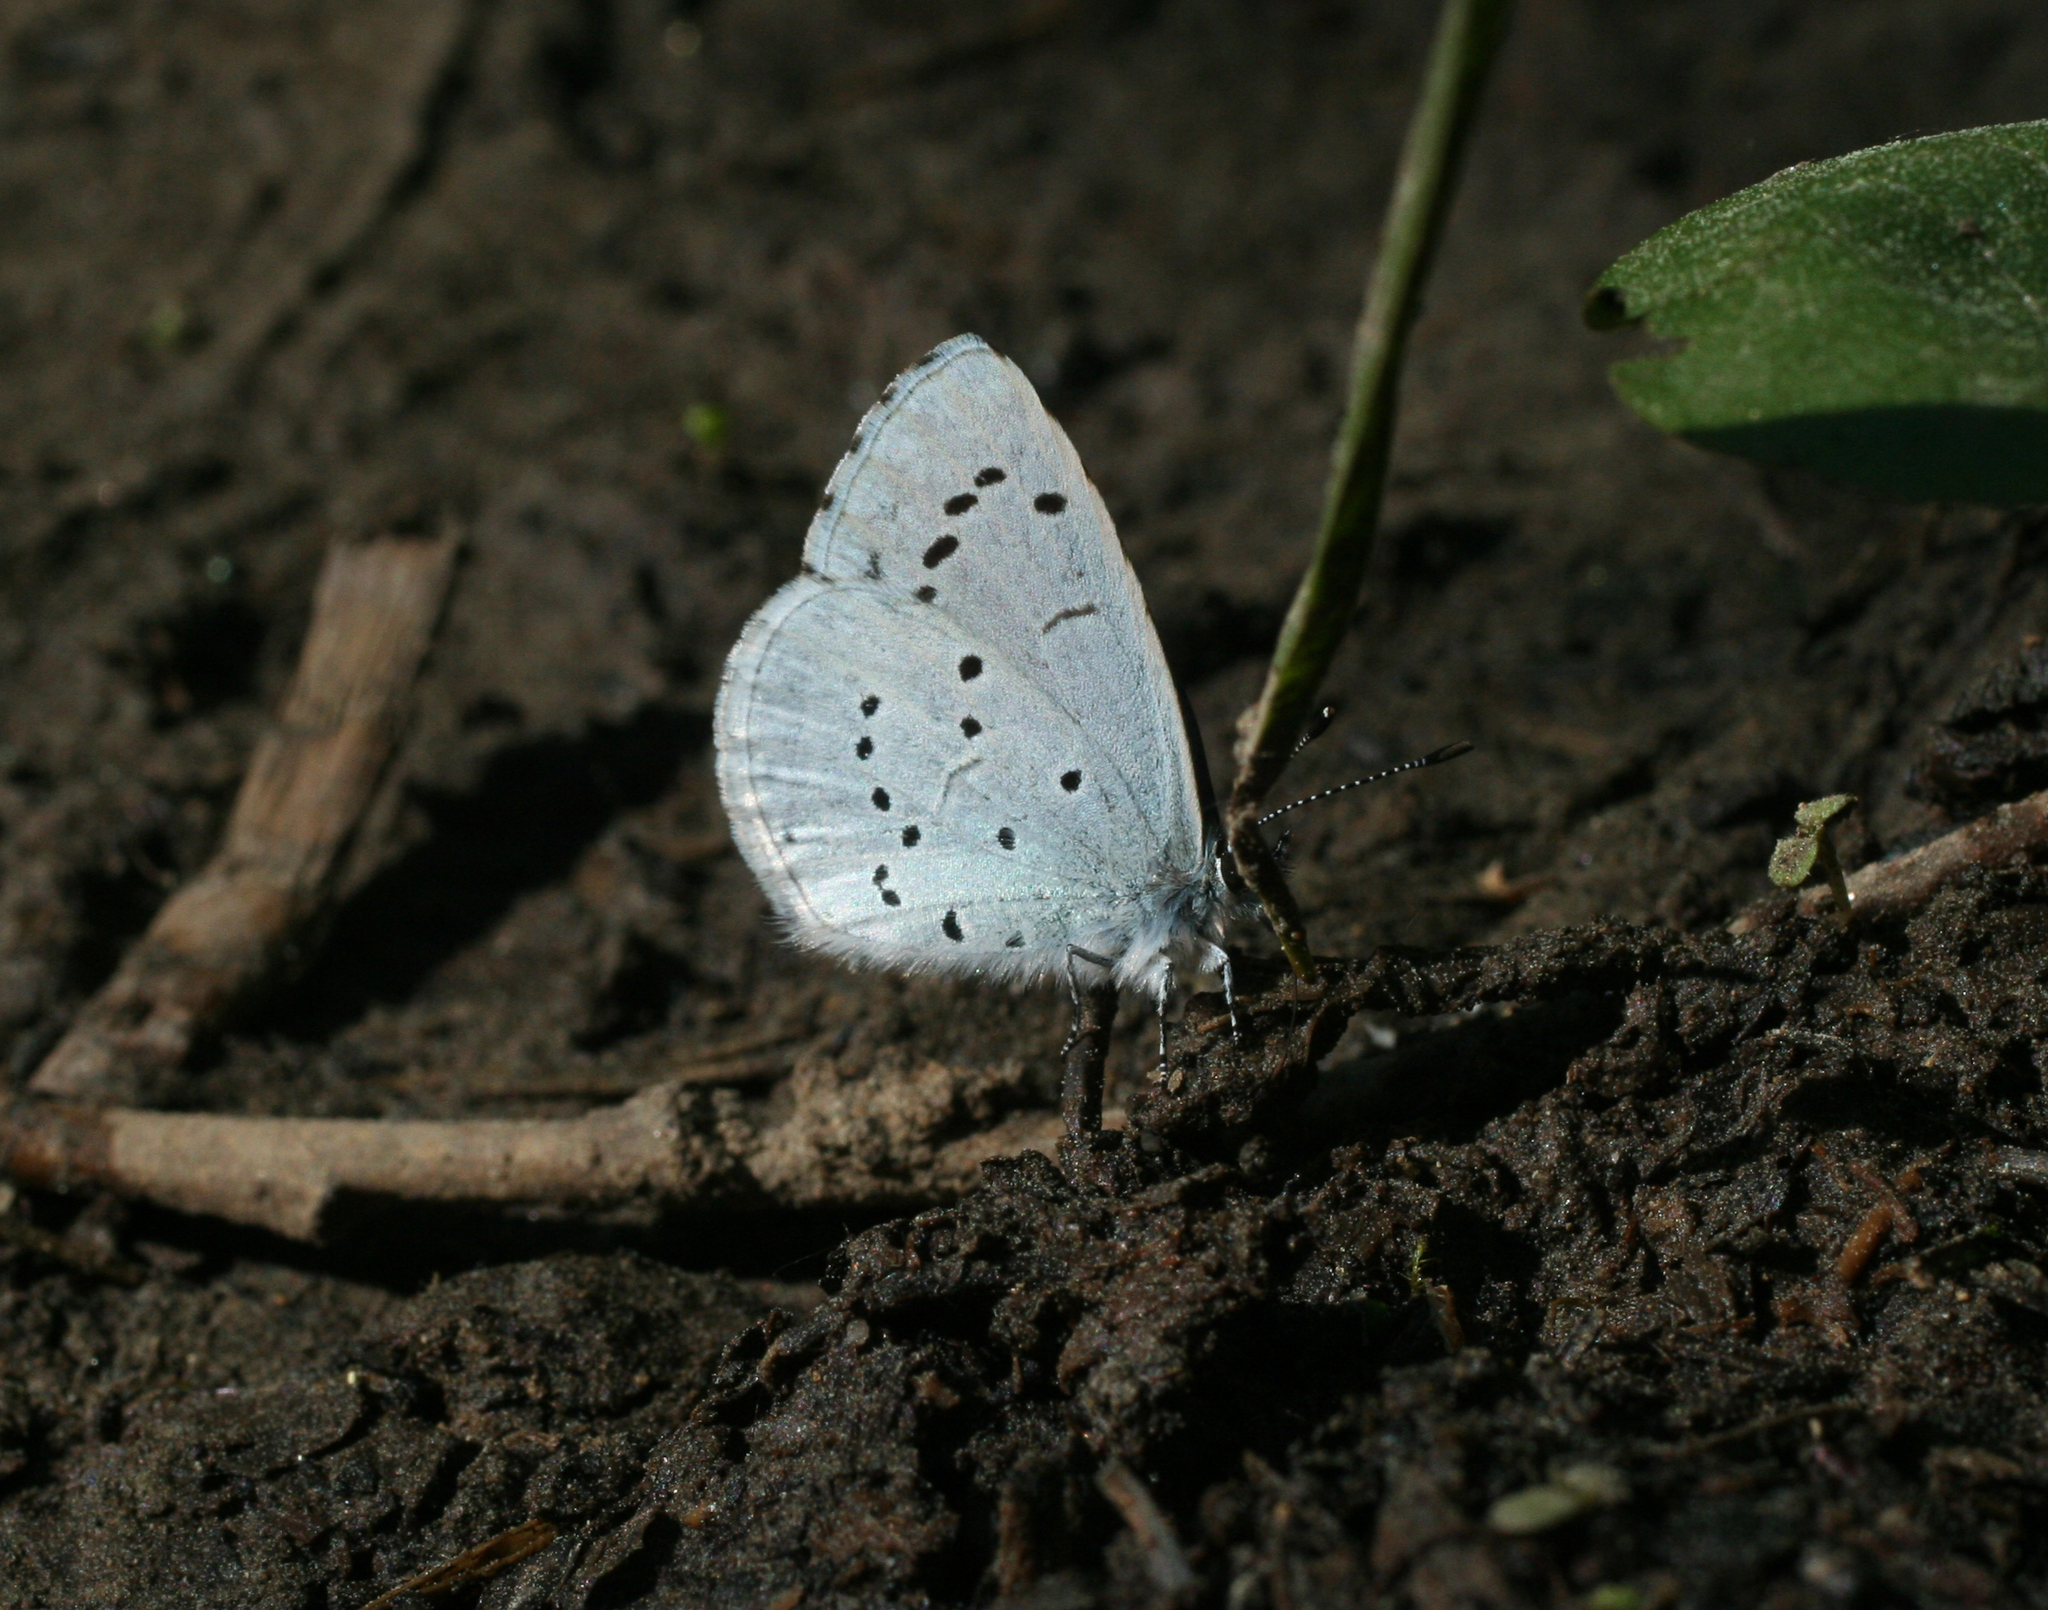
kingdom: Animalia
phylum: Arthropoda
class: Insecta
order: Lepidoptera
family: Lycaenidae
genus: Celastrina
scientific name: Celastrina argiolus
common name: Holly blue
